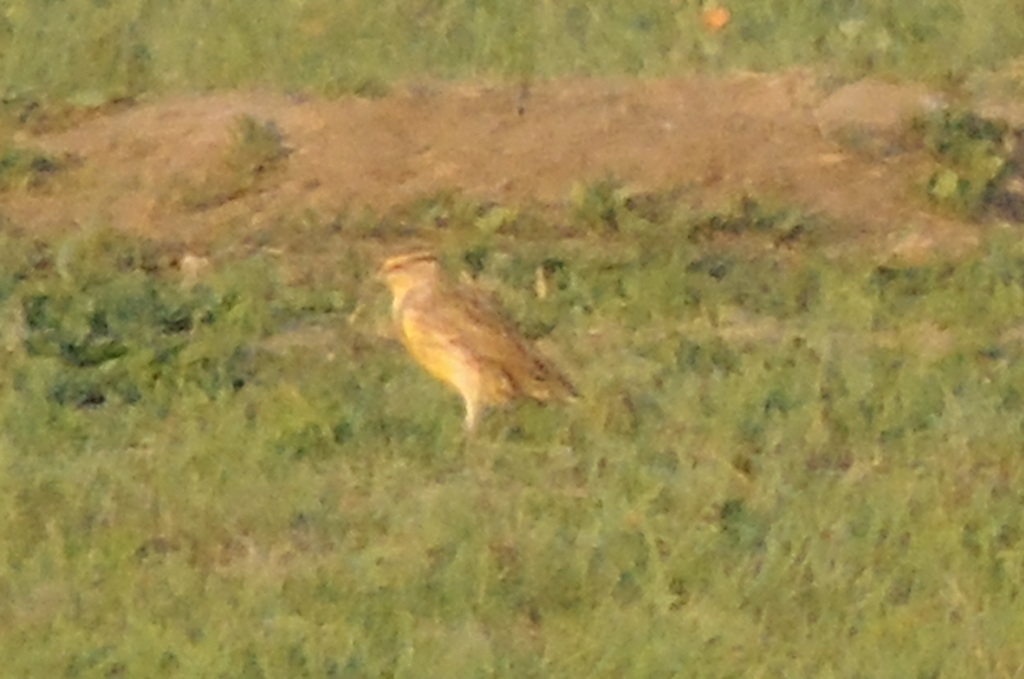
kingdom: Animalia
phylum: Chordata
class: Aves
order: Passeriformes
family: Icteridae
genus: Sturnella
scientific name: Sturnella neglecta
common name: Western meadowlark
